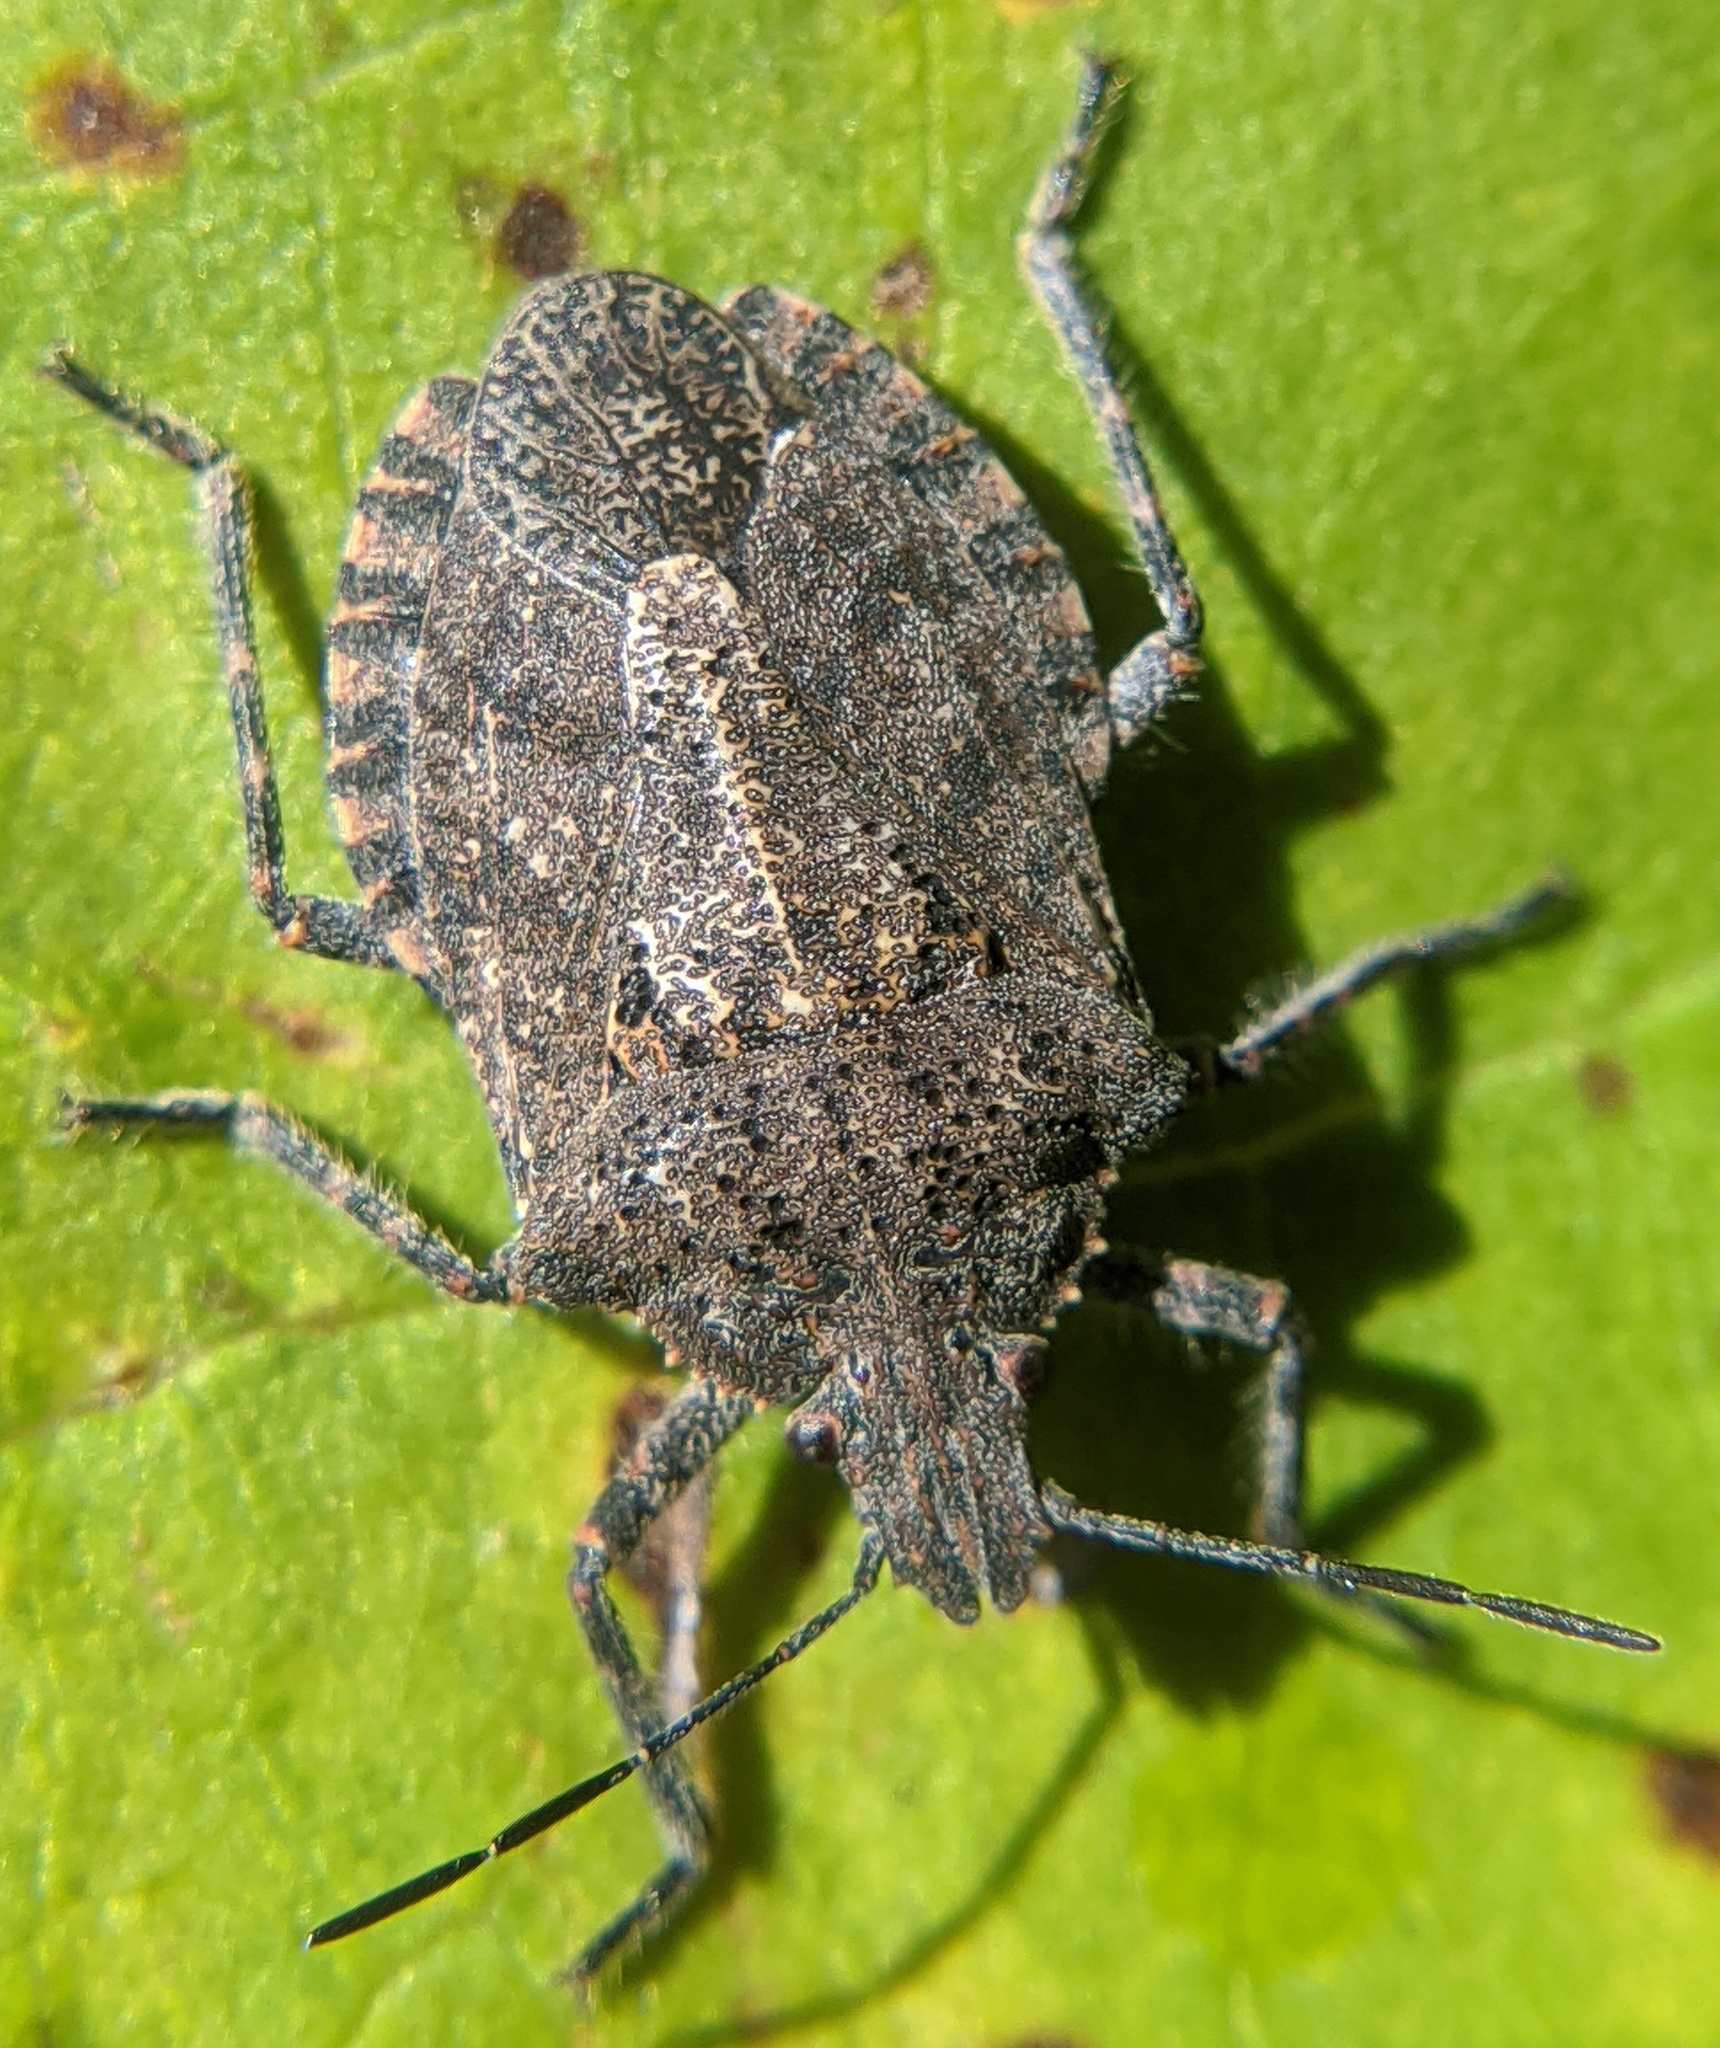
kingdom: Animalia
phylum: Arthropoda
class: Insecta
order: Hemiptera
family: Pentatomidae
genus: Brochymena
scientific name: Brochymena quadripustulata
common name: Four-humped stink bug
